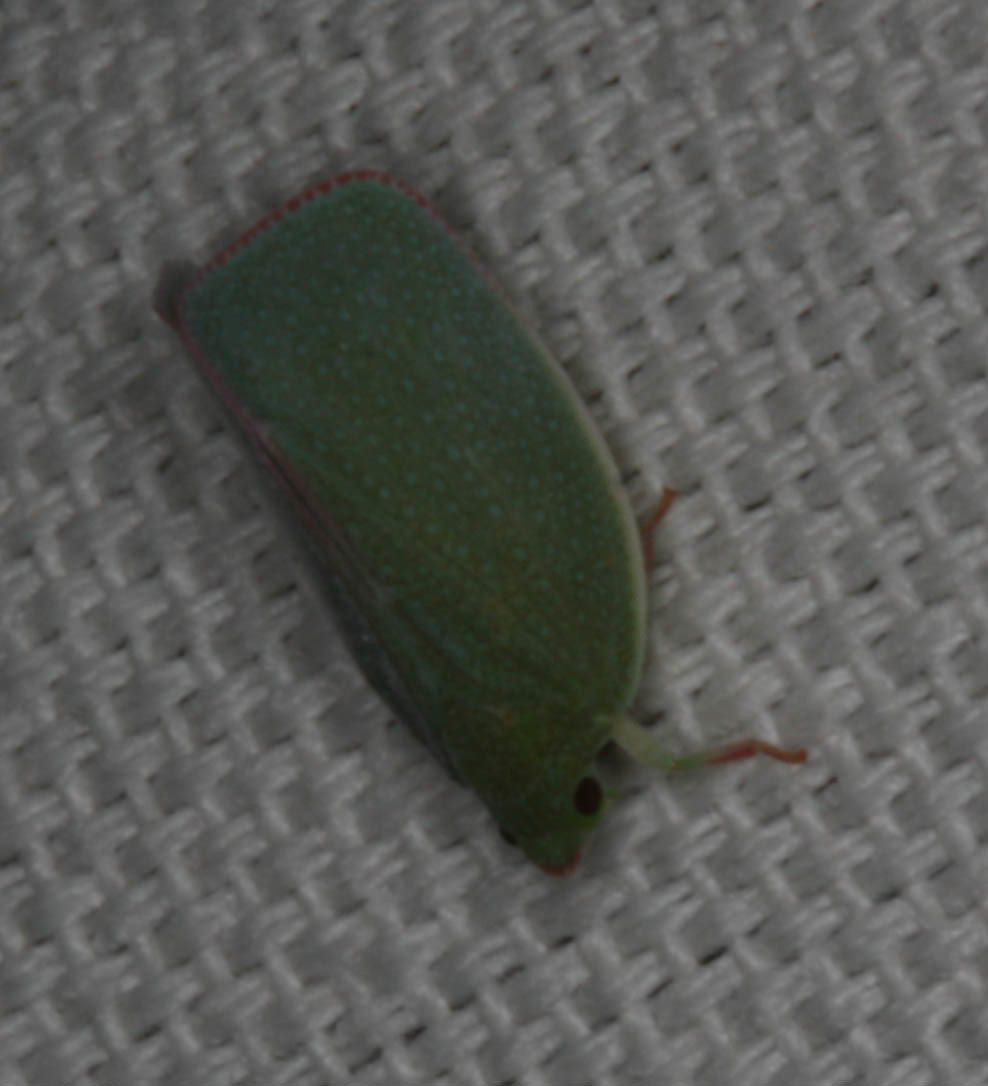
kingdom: Animalia
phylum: Arthropoda
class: Insecta
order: Hemiptera
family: Flatidae
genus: Siphanta
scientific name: Siphanta acuta
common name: Torpedo bug
